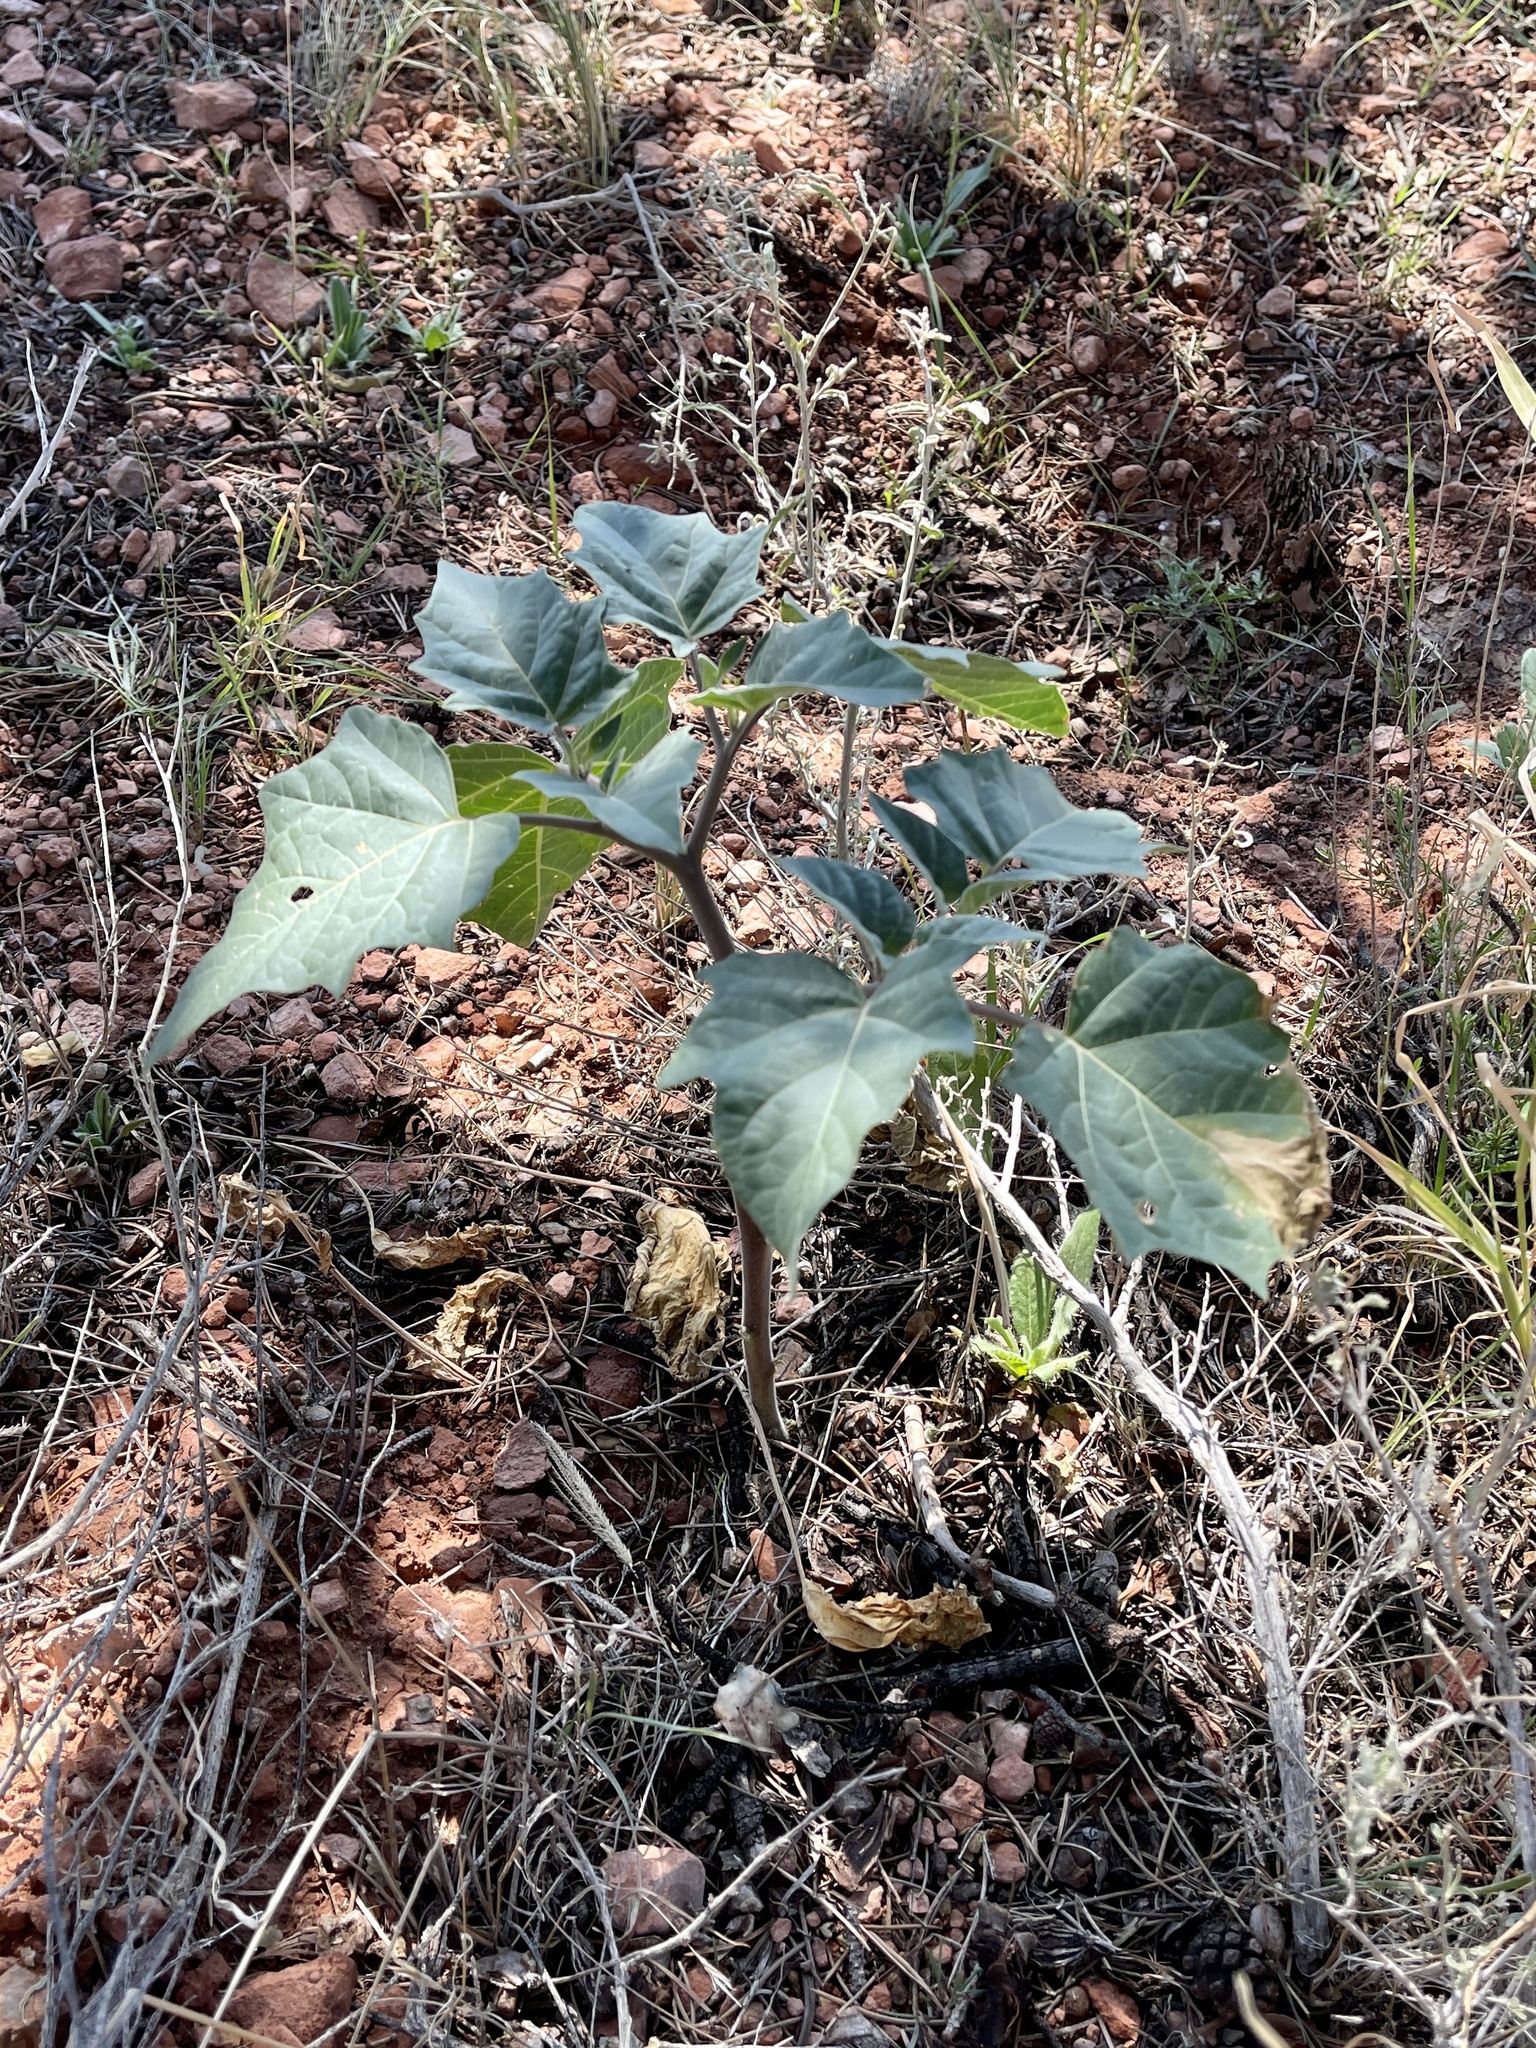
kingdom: Plantae
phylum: Tracheophyta
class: Magnoliopsida
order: Solanales
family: Solanaceae
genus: Datura
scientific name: Datura wrightii
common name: Sacred thorn-apple
